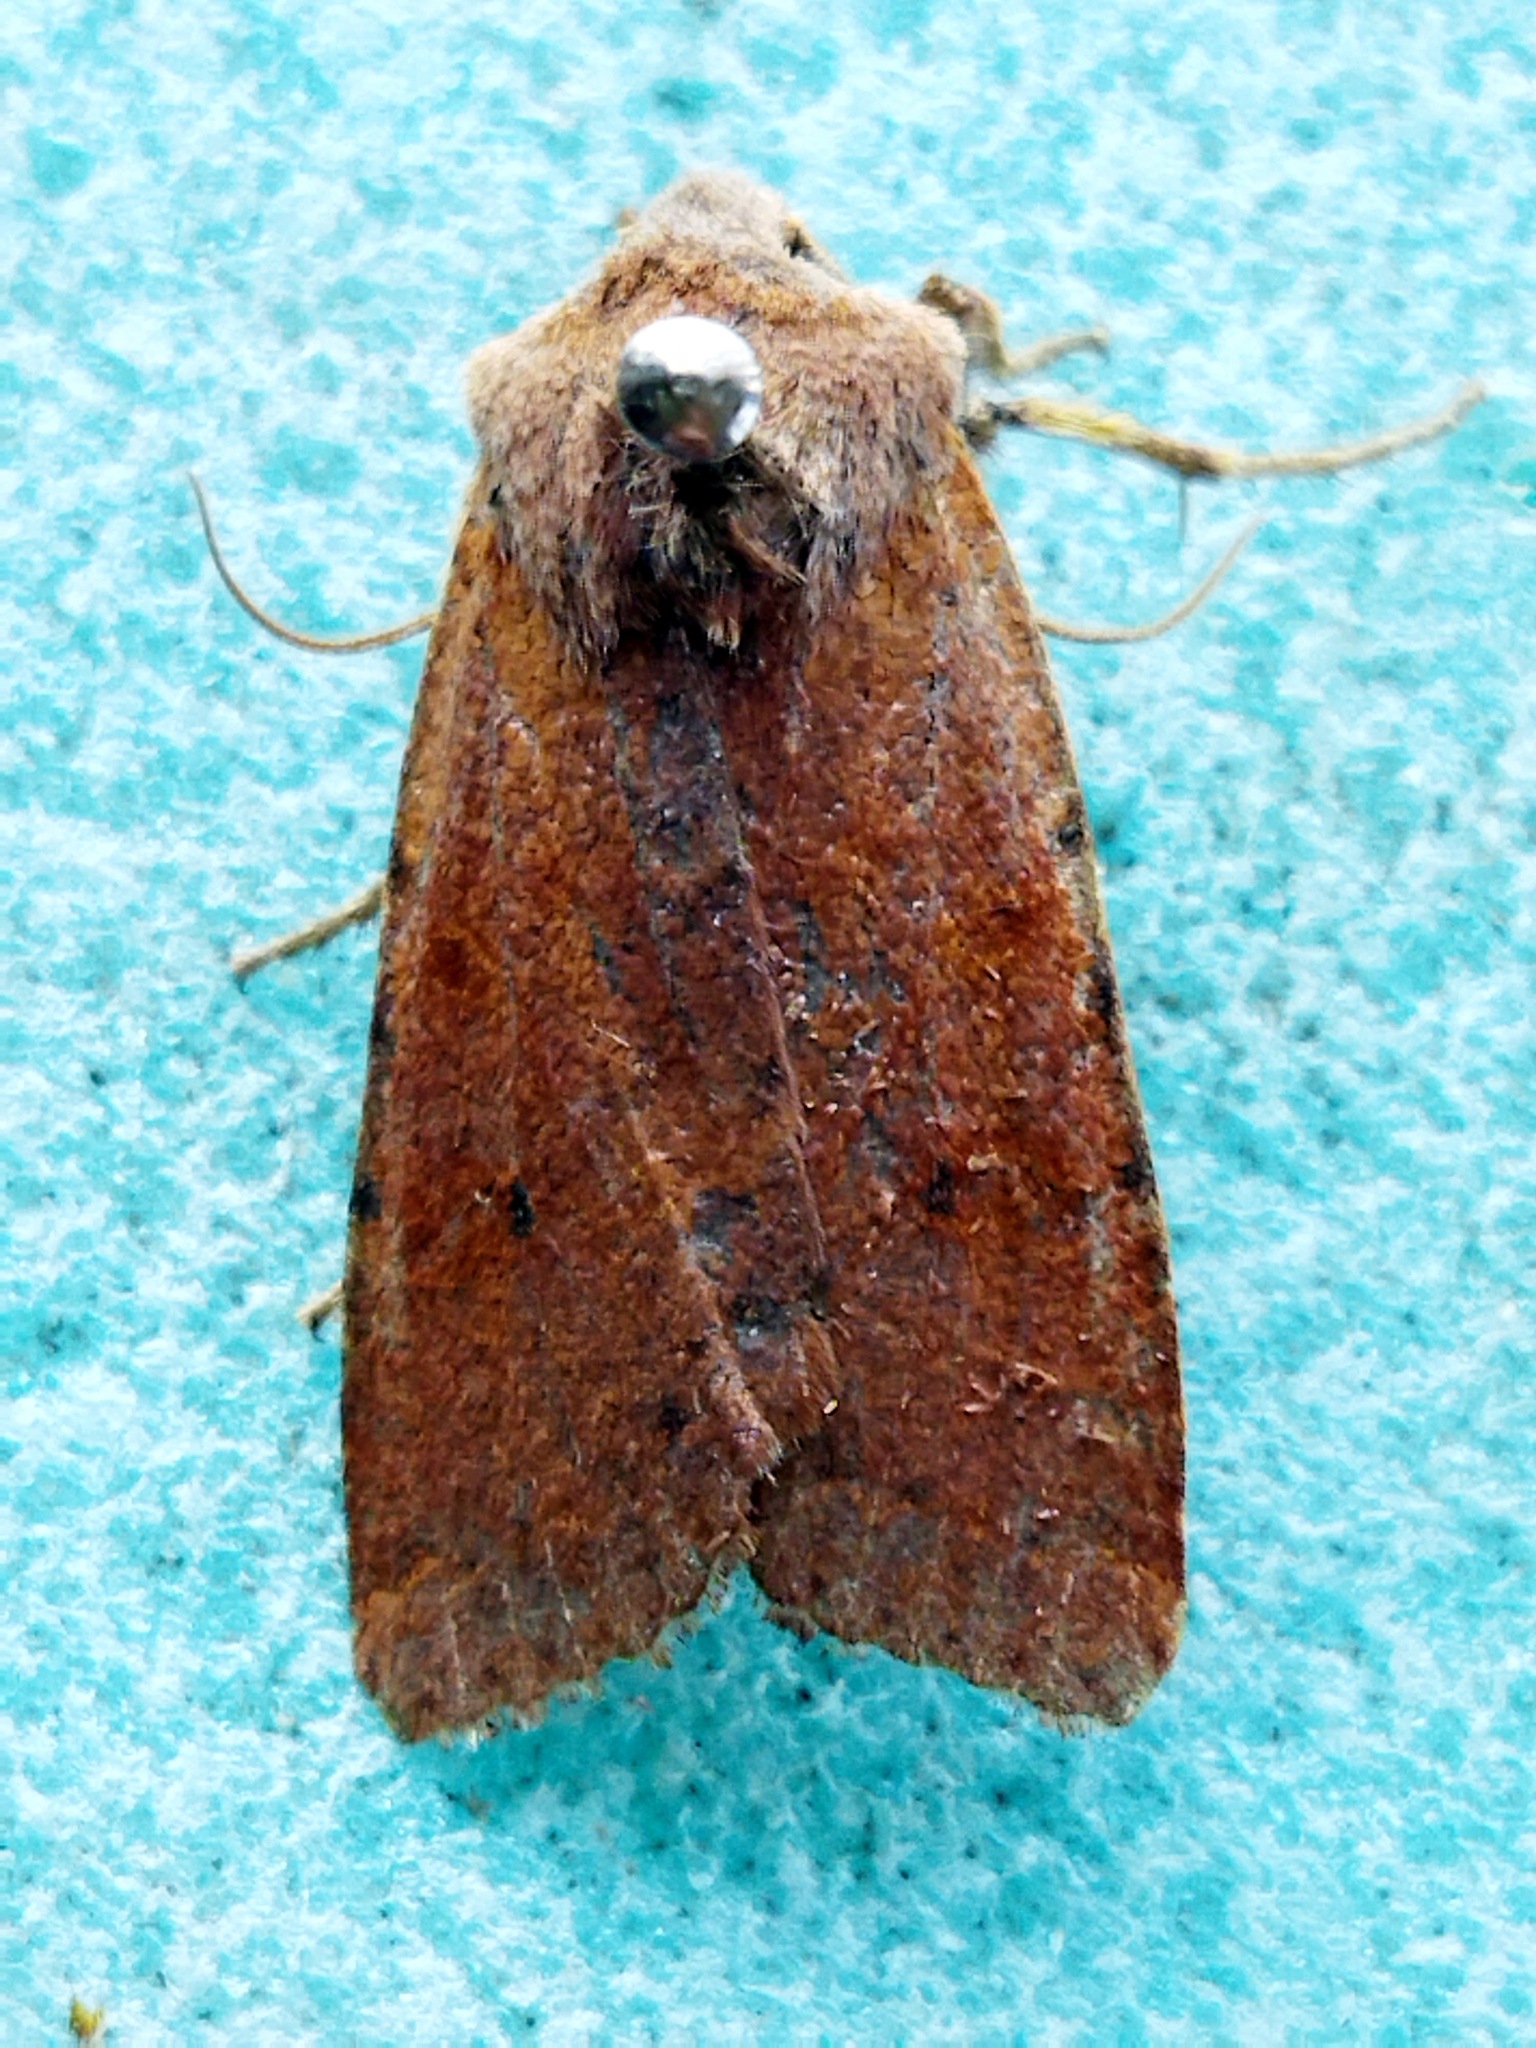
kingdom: Animalia
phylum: Arthropoda
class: Insecta
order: Lepidoptera
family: Noctuidae
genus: Agrochola
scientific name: Agrochola lychnidis
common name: Beaded chestnut
